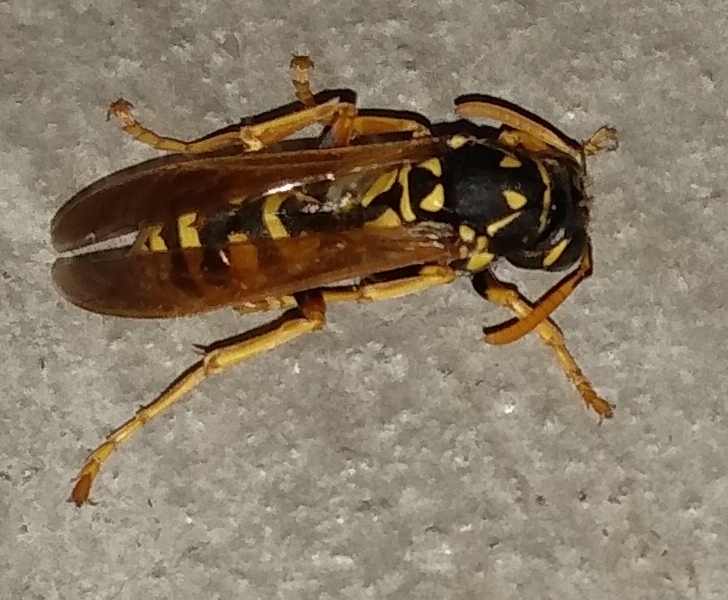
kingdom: Animalia
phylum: Arthropoda
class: Insecta
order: Hymenoptera
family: Eumenidae
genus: Polistes
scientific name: Polistes dominula
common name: Paper wasp
